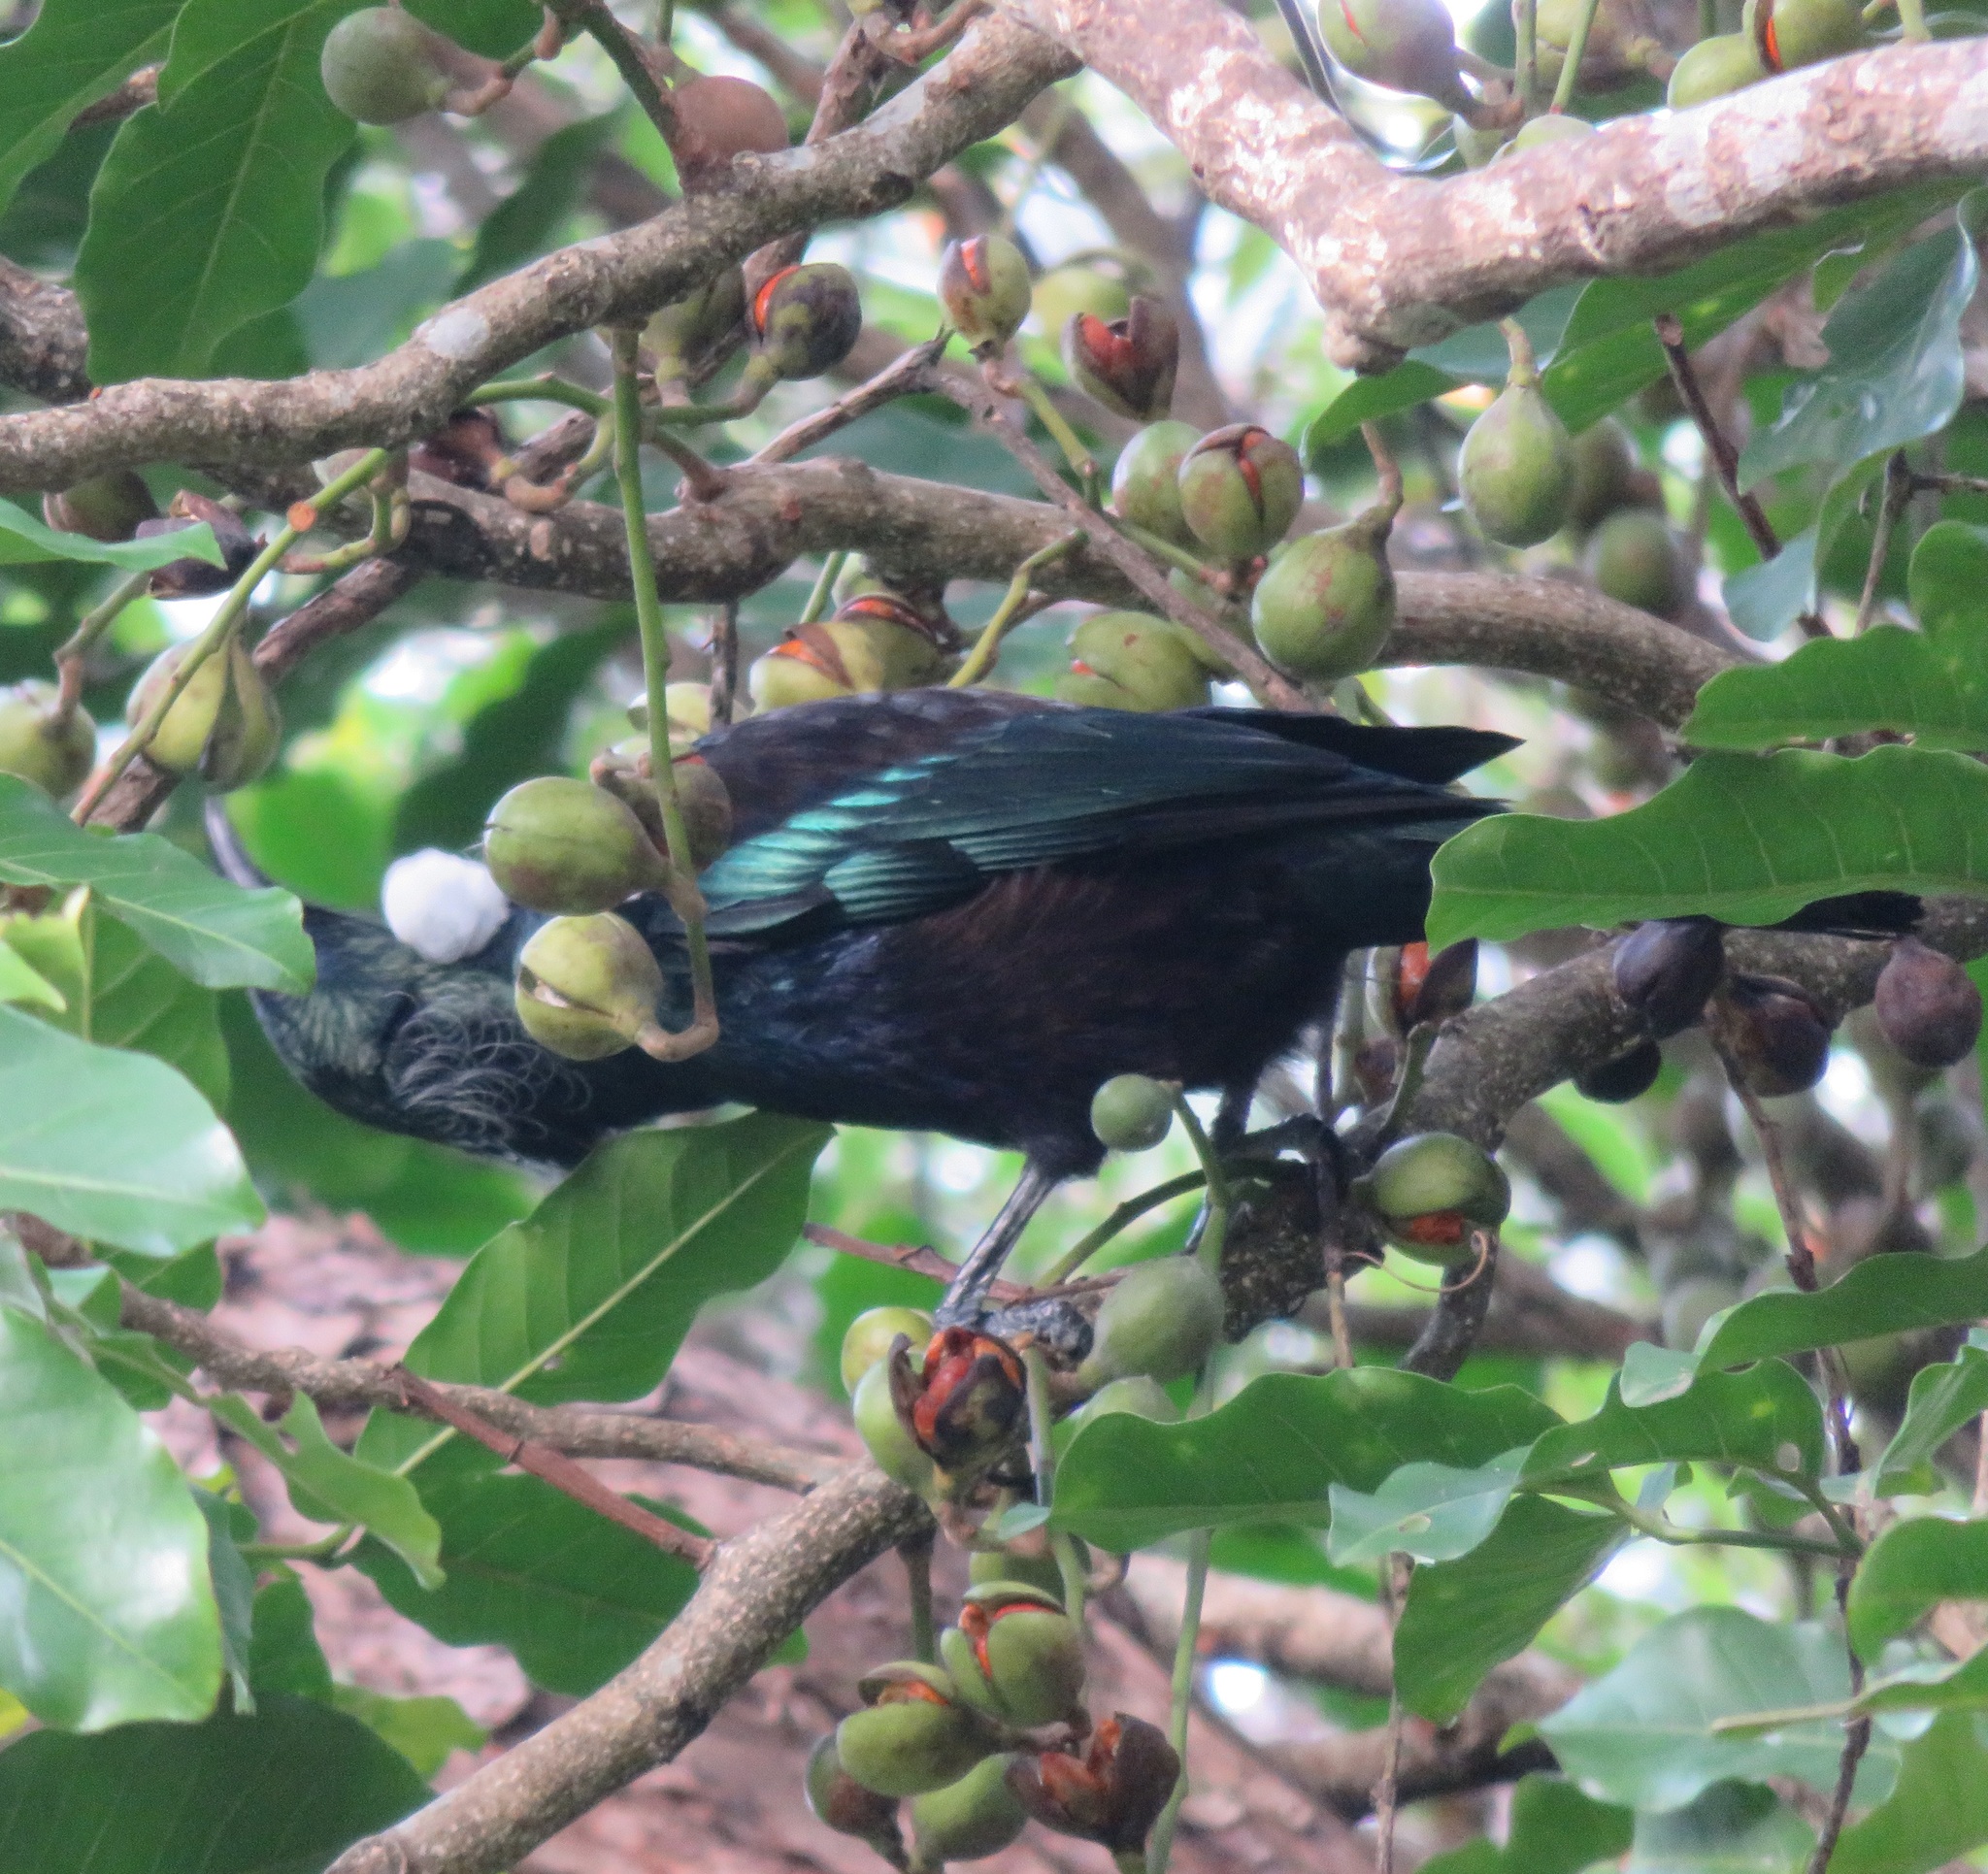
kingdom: Animalia
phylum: Chordata
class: Aves
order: Passeriformes
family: Meliphagidae
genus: Prosthemadera
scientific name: Prosthemadera novaeseelandiae
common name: Tui
